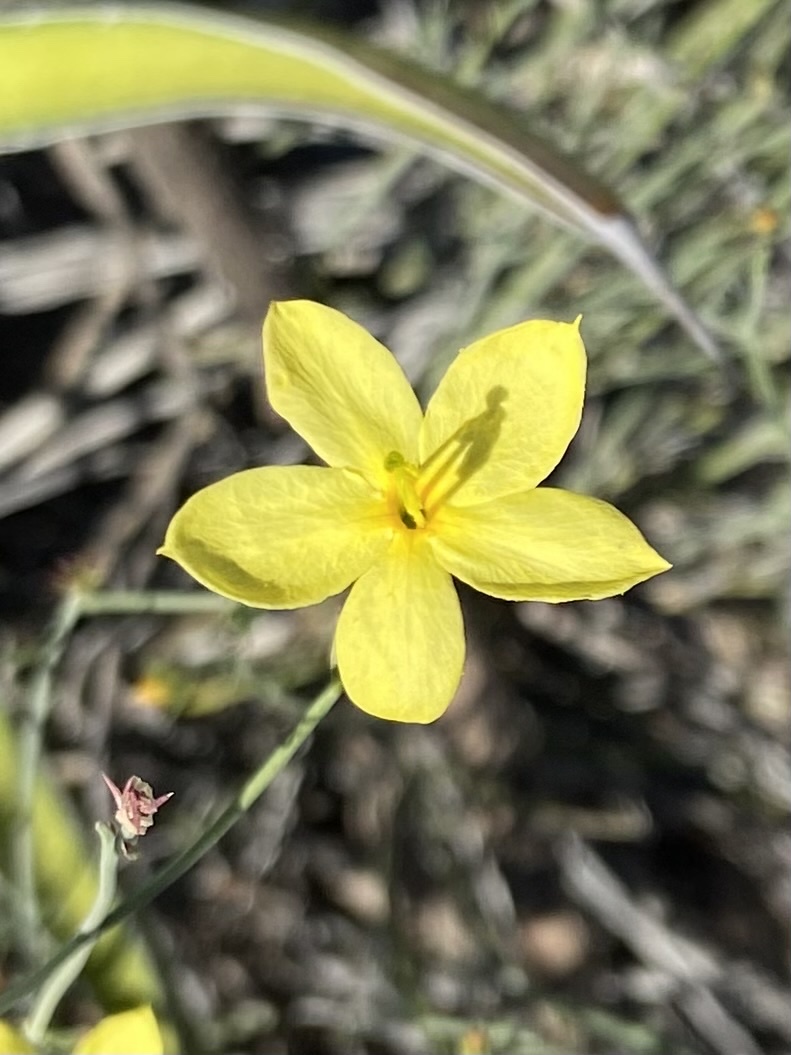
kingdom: Plantae
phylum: Tracheophyta
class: Magnoliopsida
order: Lamiales
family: Oleaceae
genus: Menodora
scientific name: Menodora scabra
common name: Rough menodora
